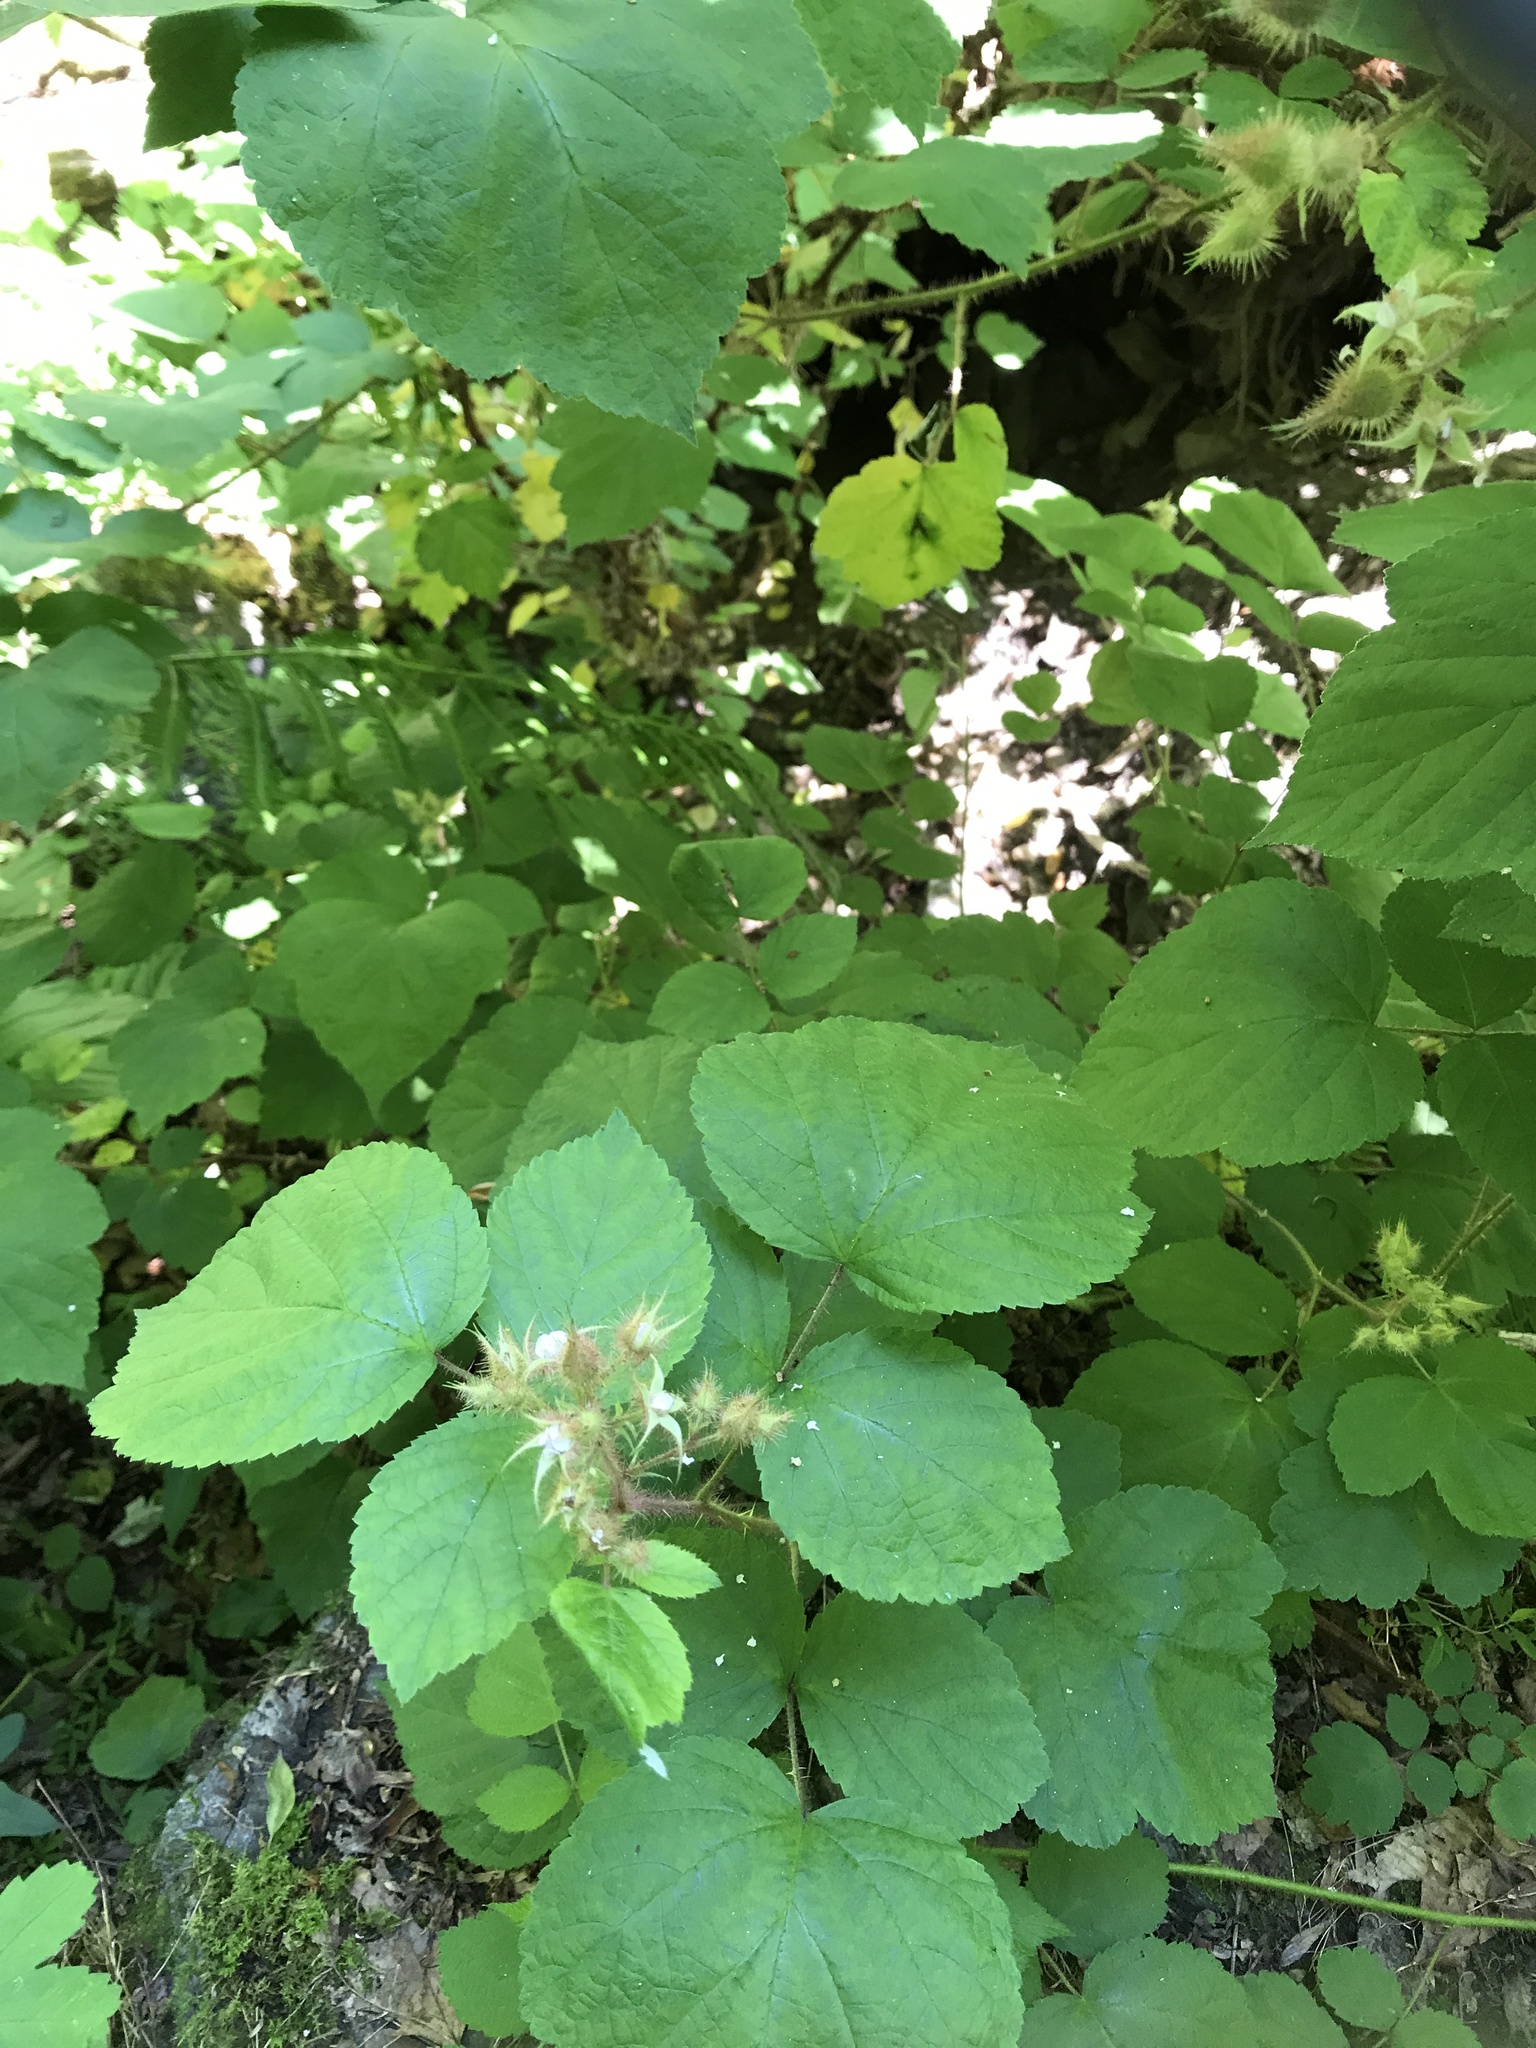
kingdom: Plantae
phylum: Tracheophyta
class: Magnoliopsida
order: Rosales
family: Rosaceae
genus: Rubus
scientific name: Rubus phoenicolasius
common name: Japanese wineberry
